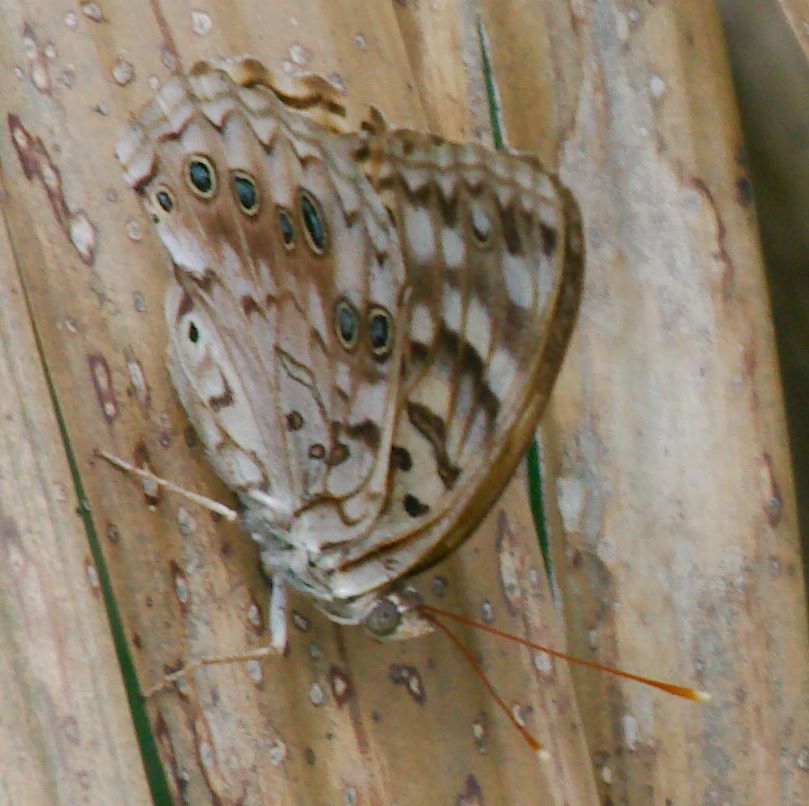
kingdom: Animalia
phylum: Arthropoda
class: Insecta
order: Lepidoptera
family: Nymphalidae
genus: Asterocampa
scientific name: Asterocampa celtis
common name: Hackberry emperor
